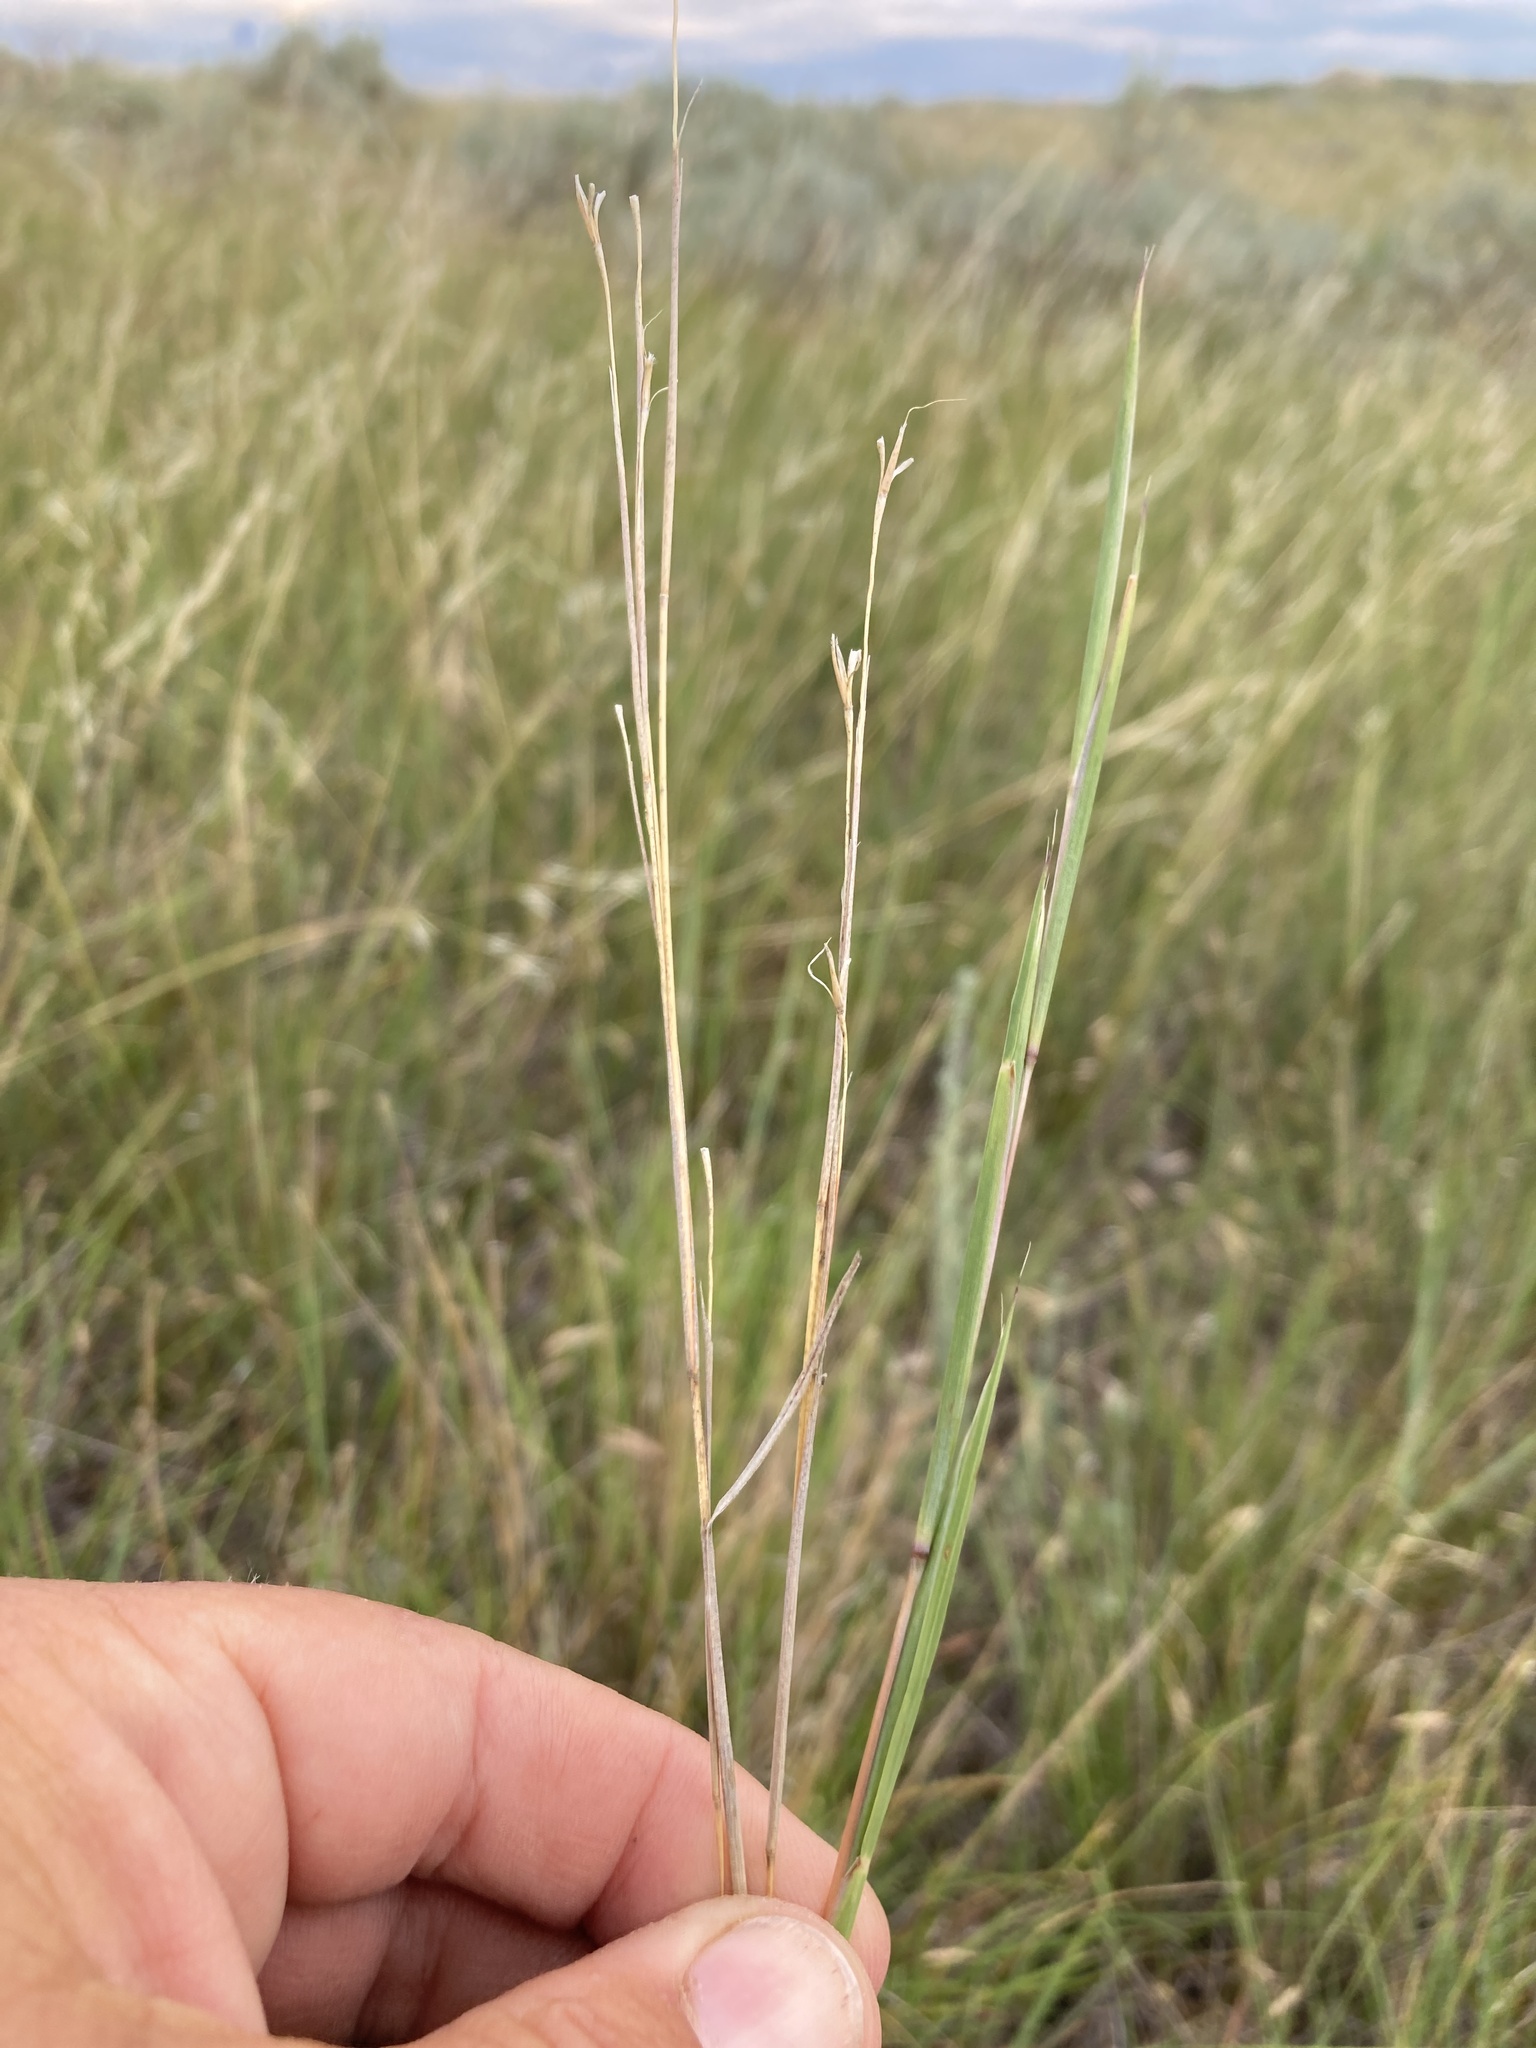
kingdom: Plantae
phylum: Tracheophyta
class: Liliopsida
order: Poales
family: Poaceae
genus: Schizachyrium
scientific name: Schizachyrium scoparium
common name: Little bluestem
